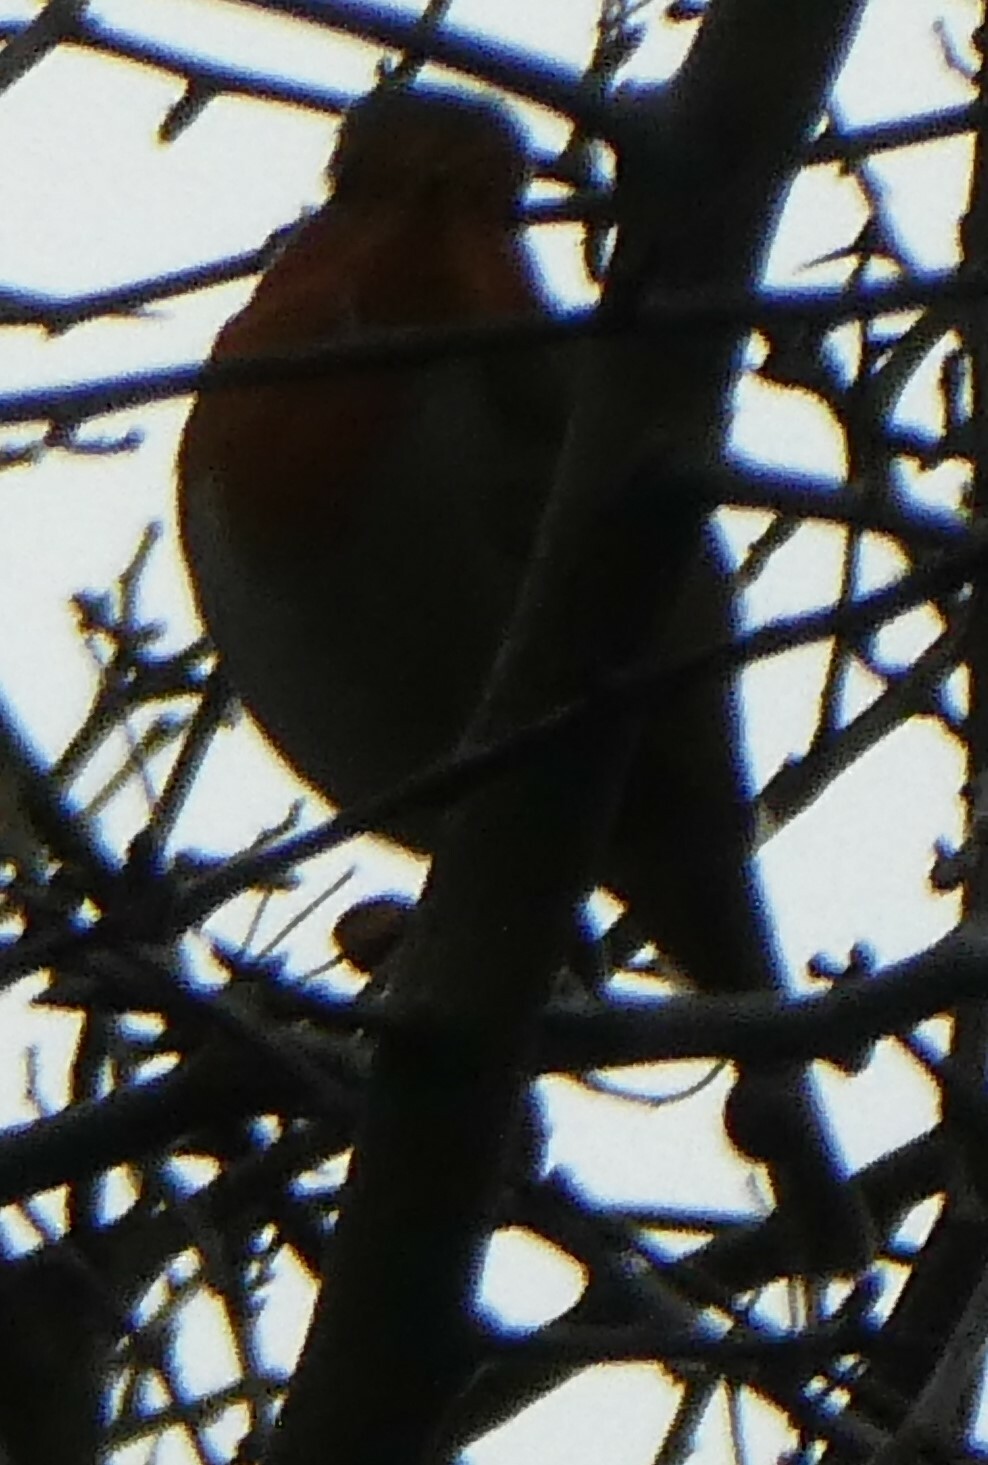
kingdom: Animalia
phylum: Chordata
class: Aves
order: Passeriformes
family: Muscicapidae
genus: Erithacus
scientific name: Erithacus rubecula
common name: European robin
